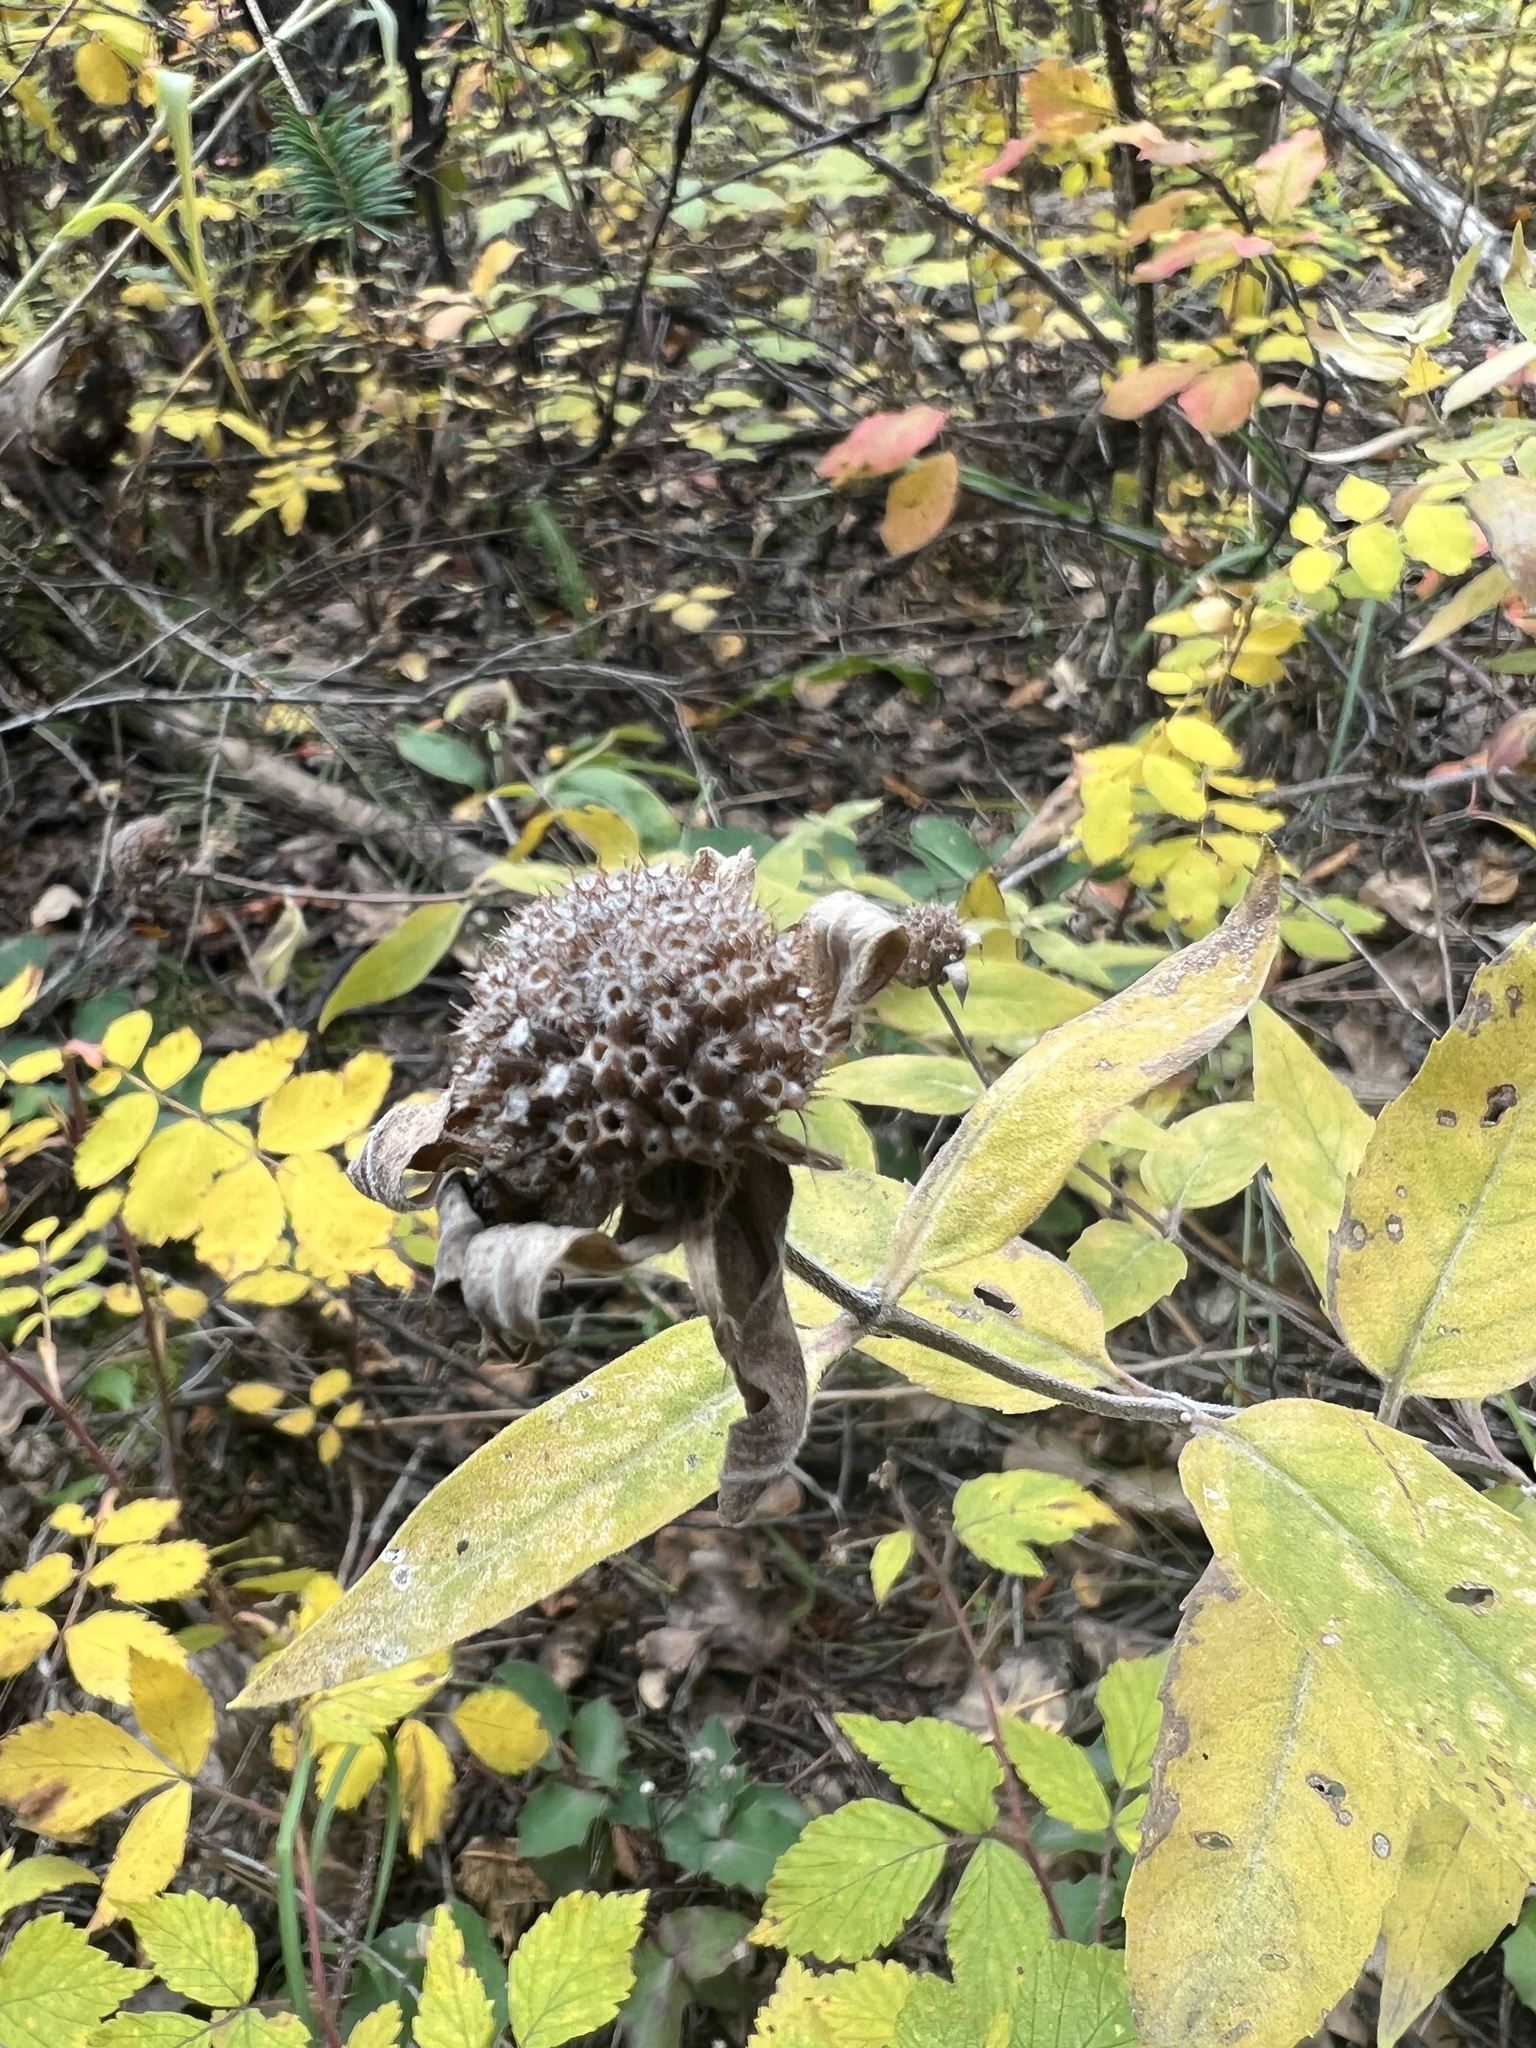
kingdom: Plantae
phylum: Tracheophyta
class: Magnoliopsida
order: Lamiales
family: Lamiaceae
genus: Monarda
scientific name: Monarda fistulosa
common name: Purple beebalm
